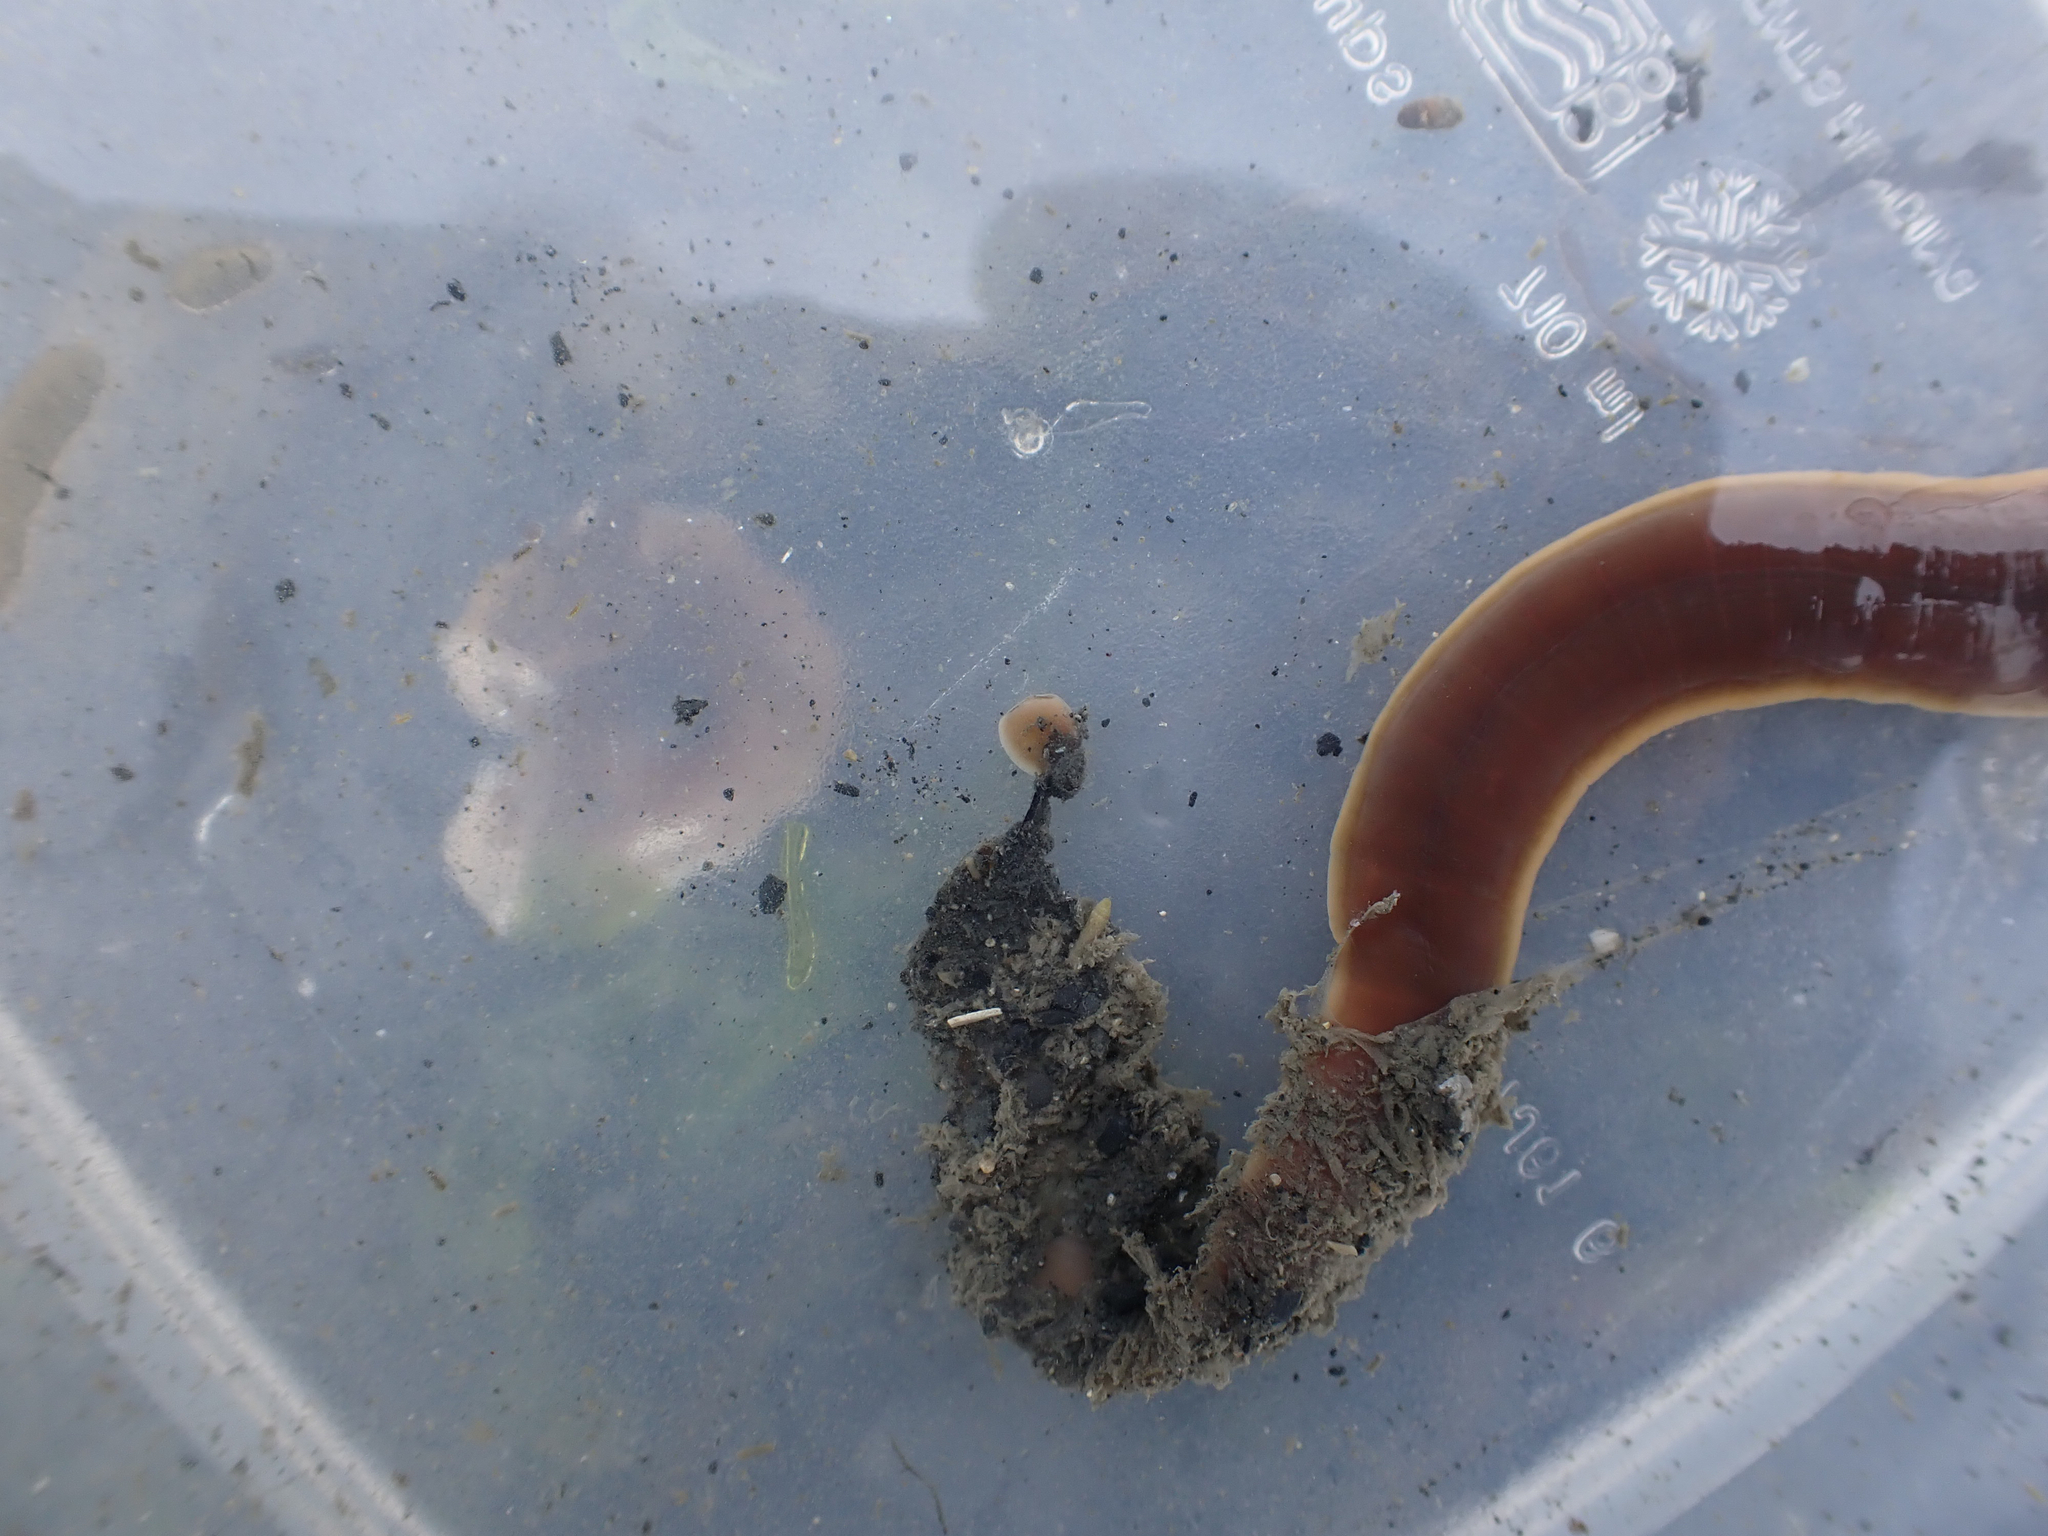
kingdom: Animalia
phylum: Nemertea
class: Pilidiophora
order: Heteronemertea
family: Lineidae
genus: Cerebratulus
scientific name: Cerebratulus marginatus
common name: Black ribbon worm
